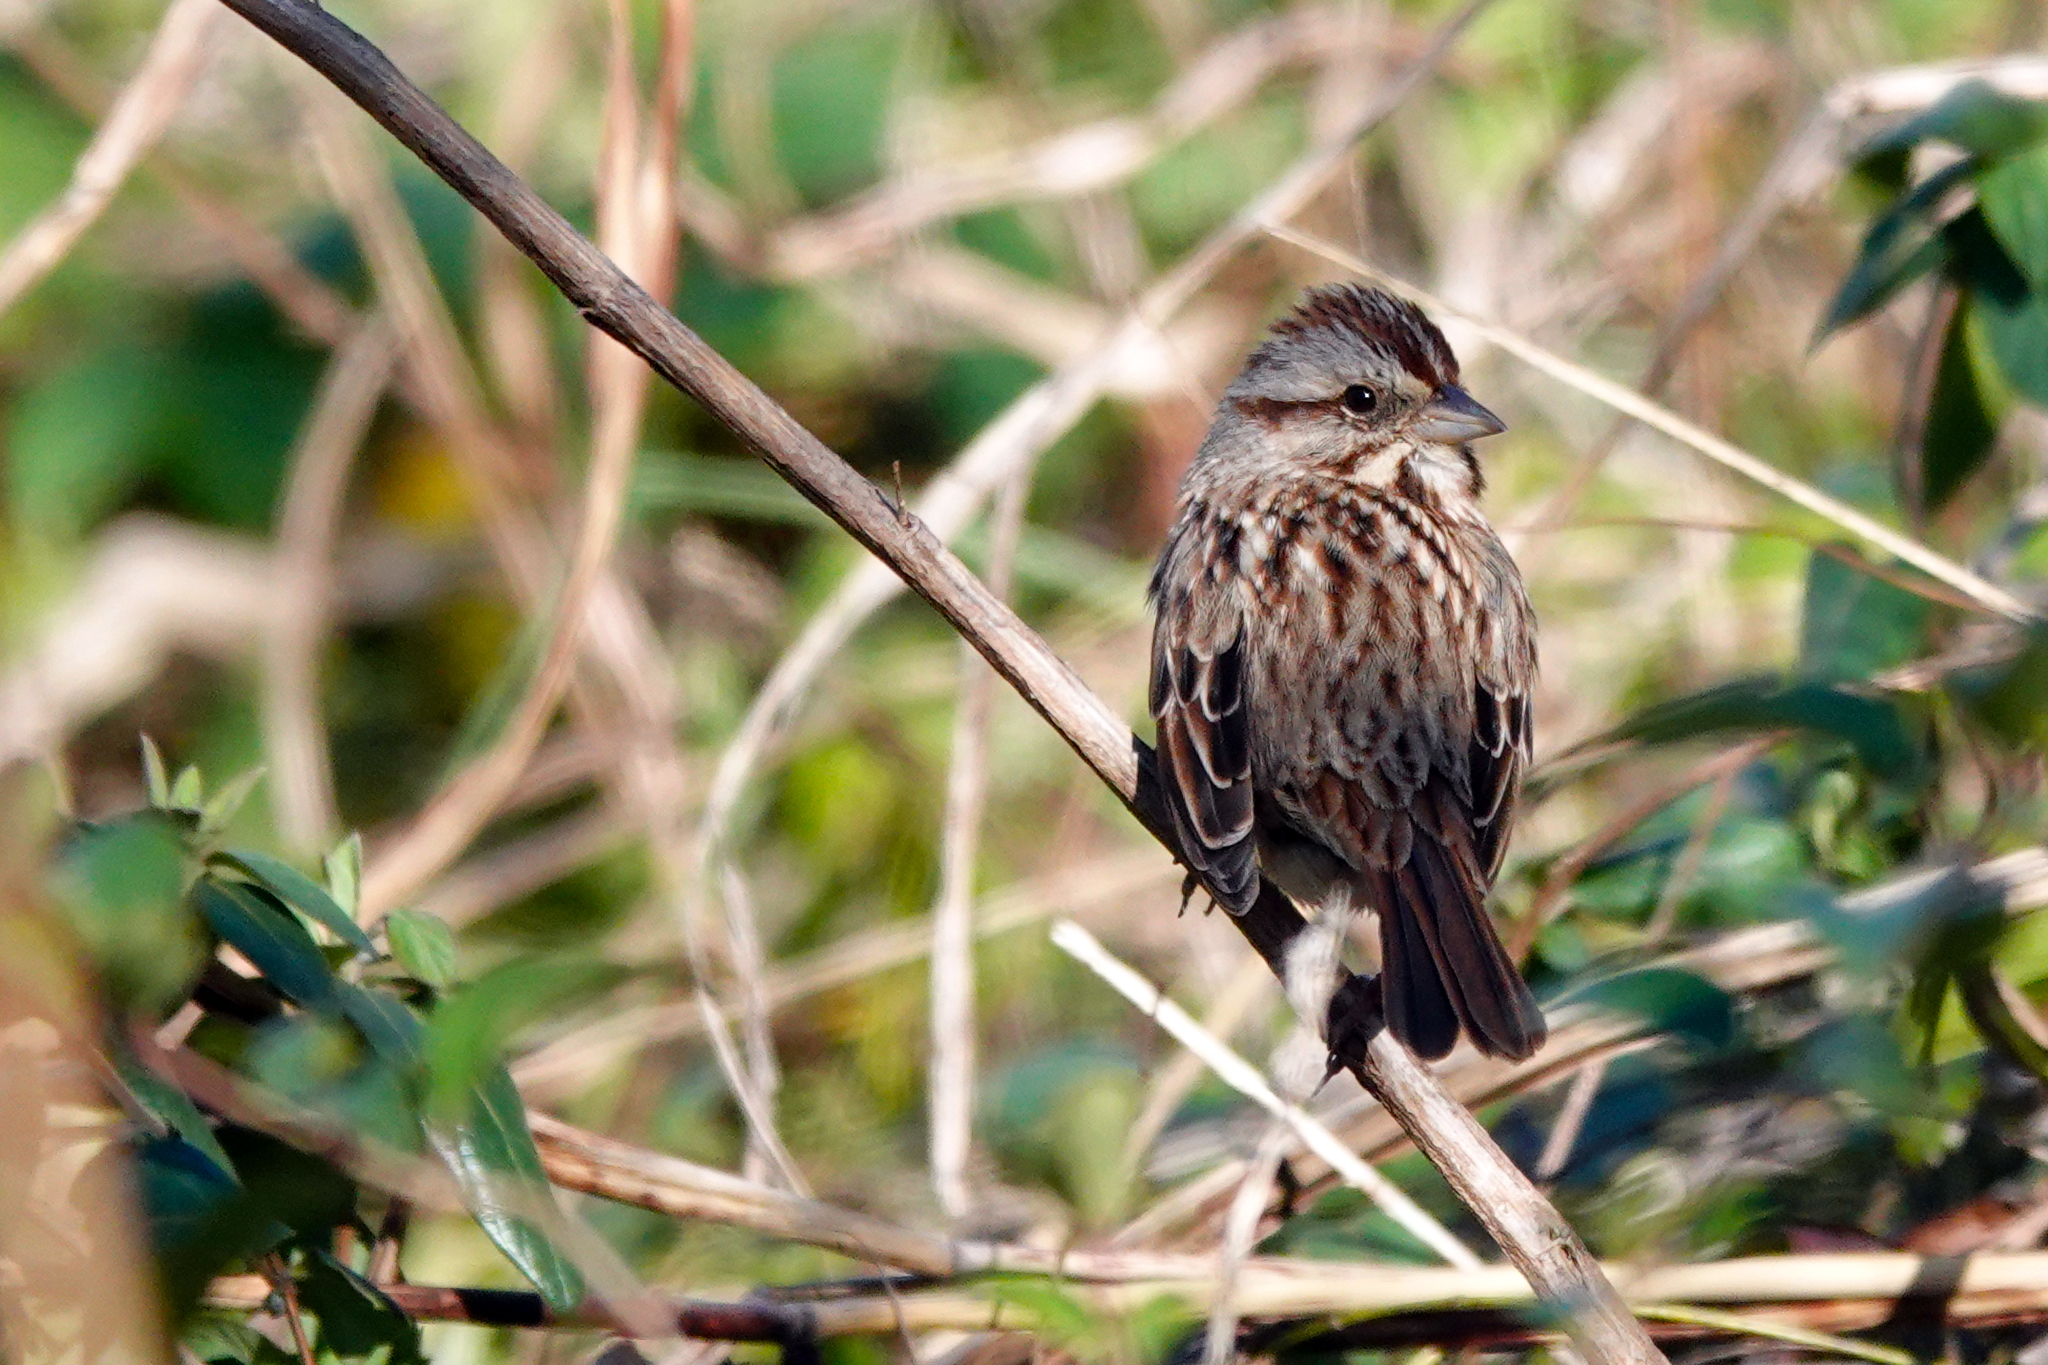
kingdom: Animalia
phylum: Chordata
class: Aves
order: Passeriformes
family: Passerellidae
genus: Melospiza
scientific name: Melospiza melodia
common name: Song sparrow
